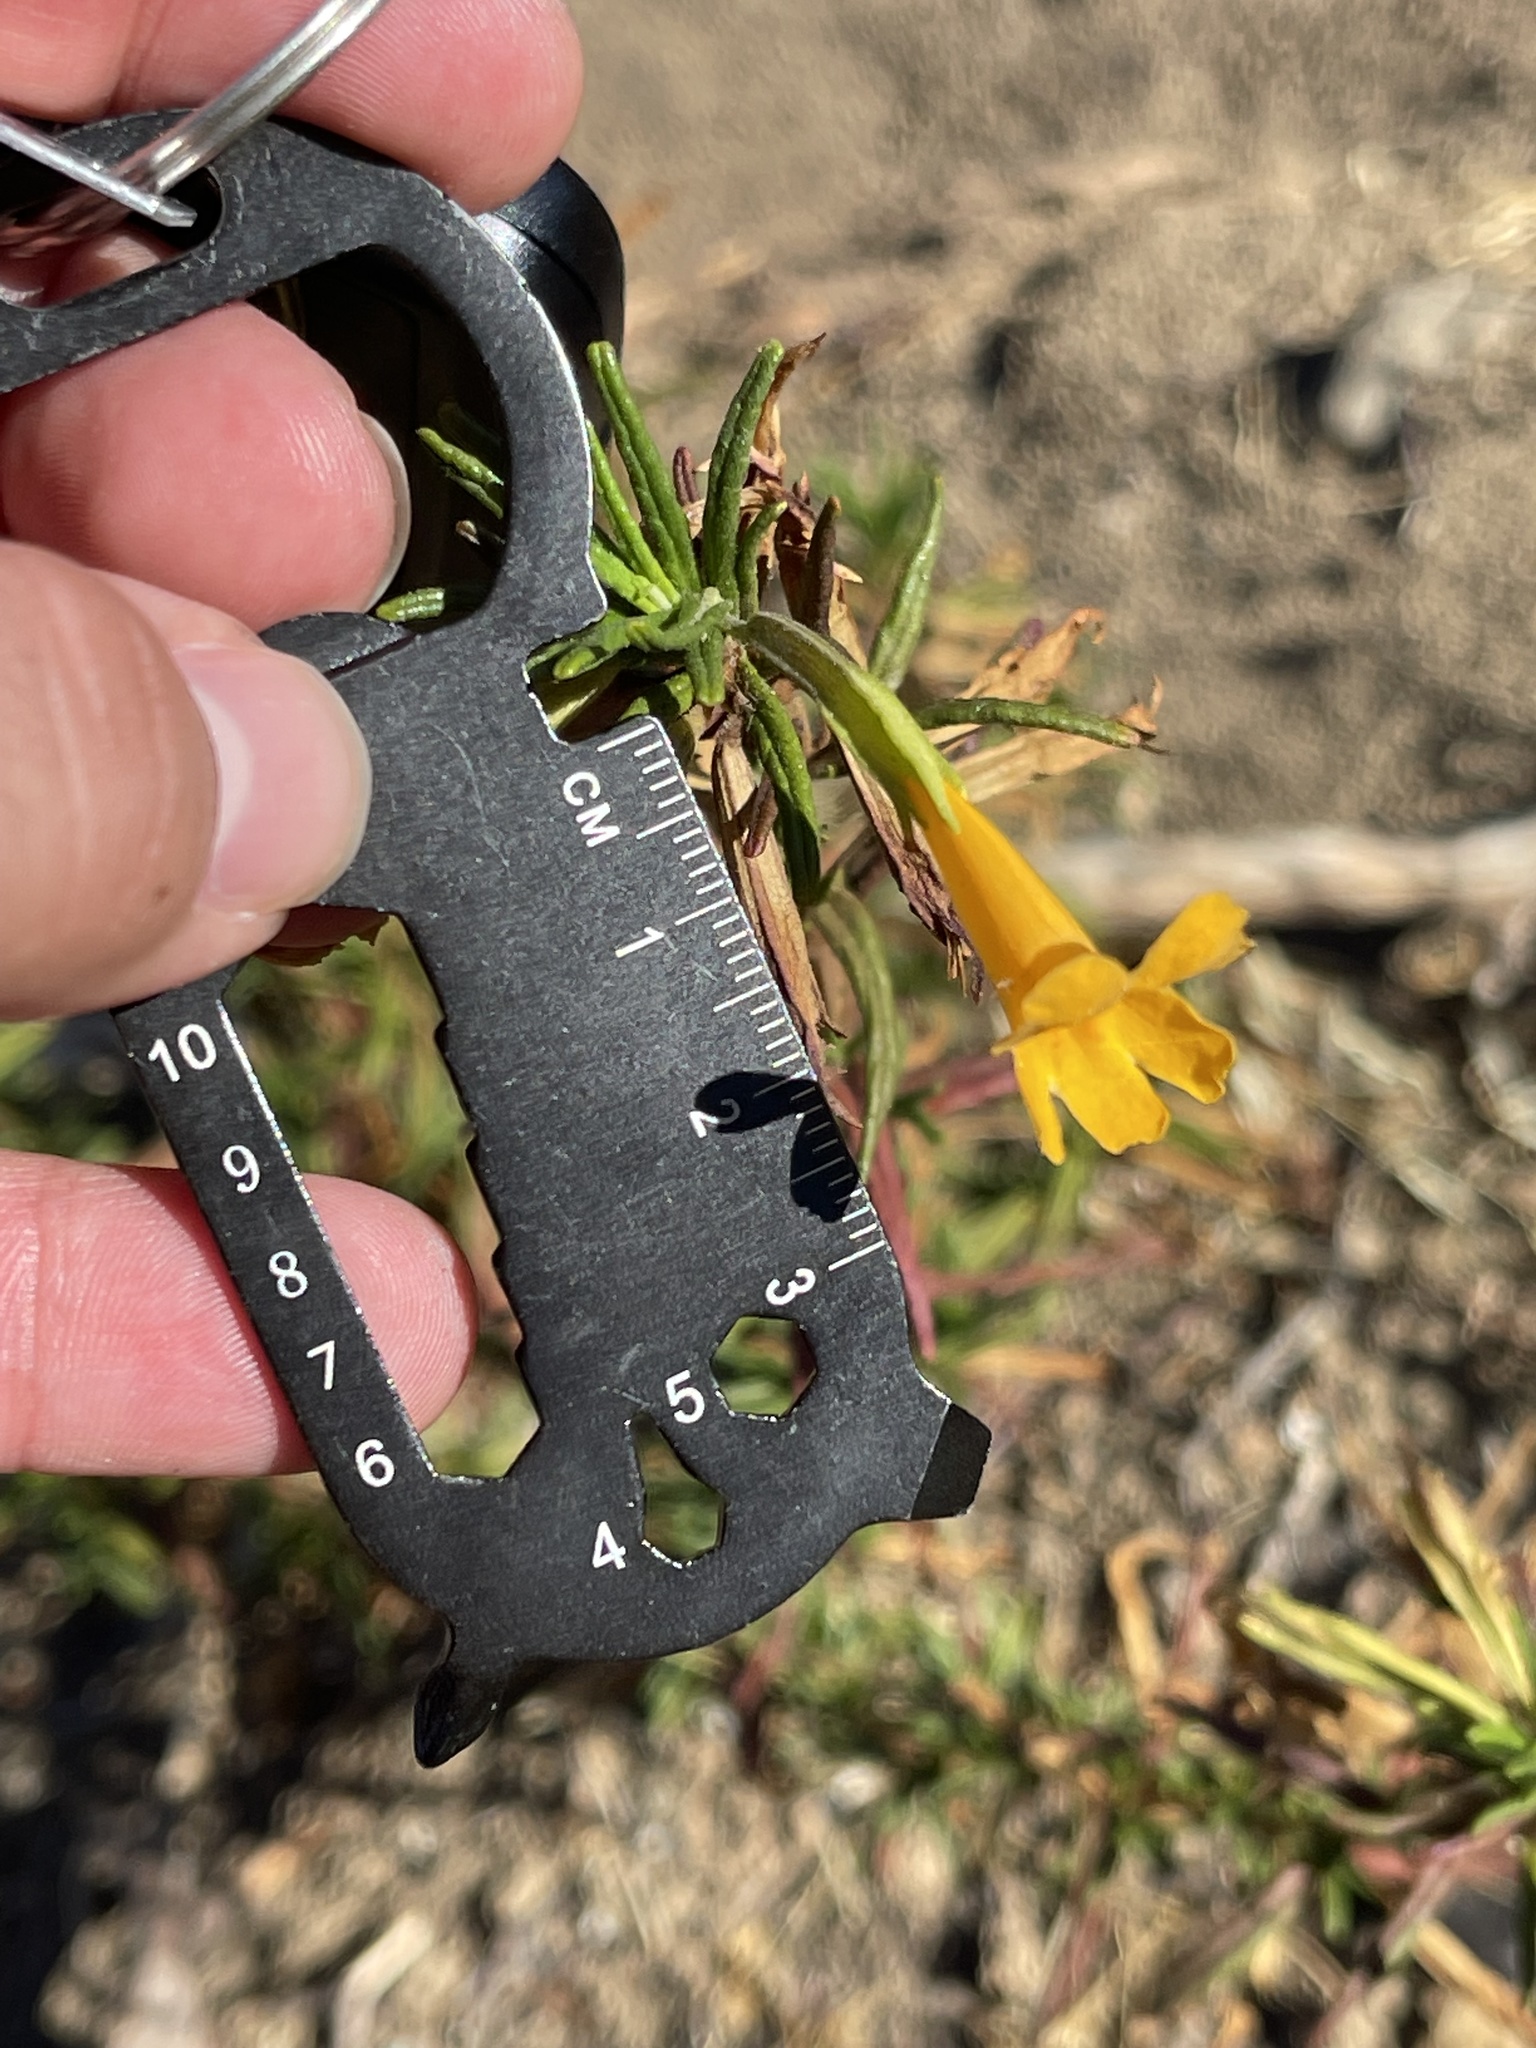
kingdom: Plantae
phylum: Tracheophyta
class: Magnoliopsida
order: Lamiales
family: Phrymaceae
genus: Diplacus
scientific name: Diplacus aurantiacus
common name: Bush monkey-flower
